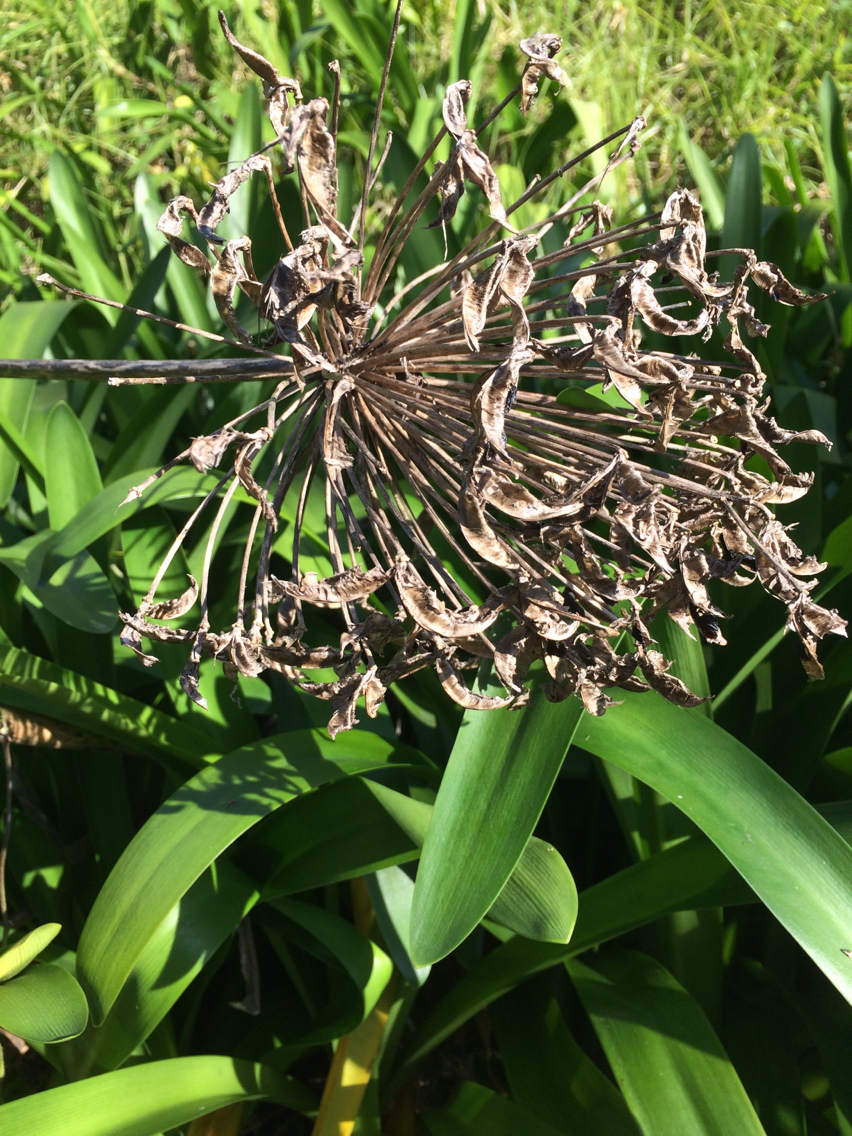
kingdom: Plantae
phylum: Tracheophyta
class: Liliopsida
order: Asparagales
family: Amaryllidaceae
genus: Agapanthus
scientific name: Agapanthus praecox
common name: African-lily
